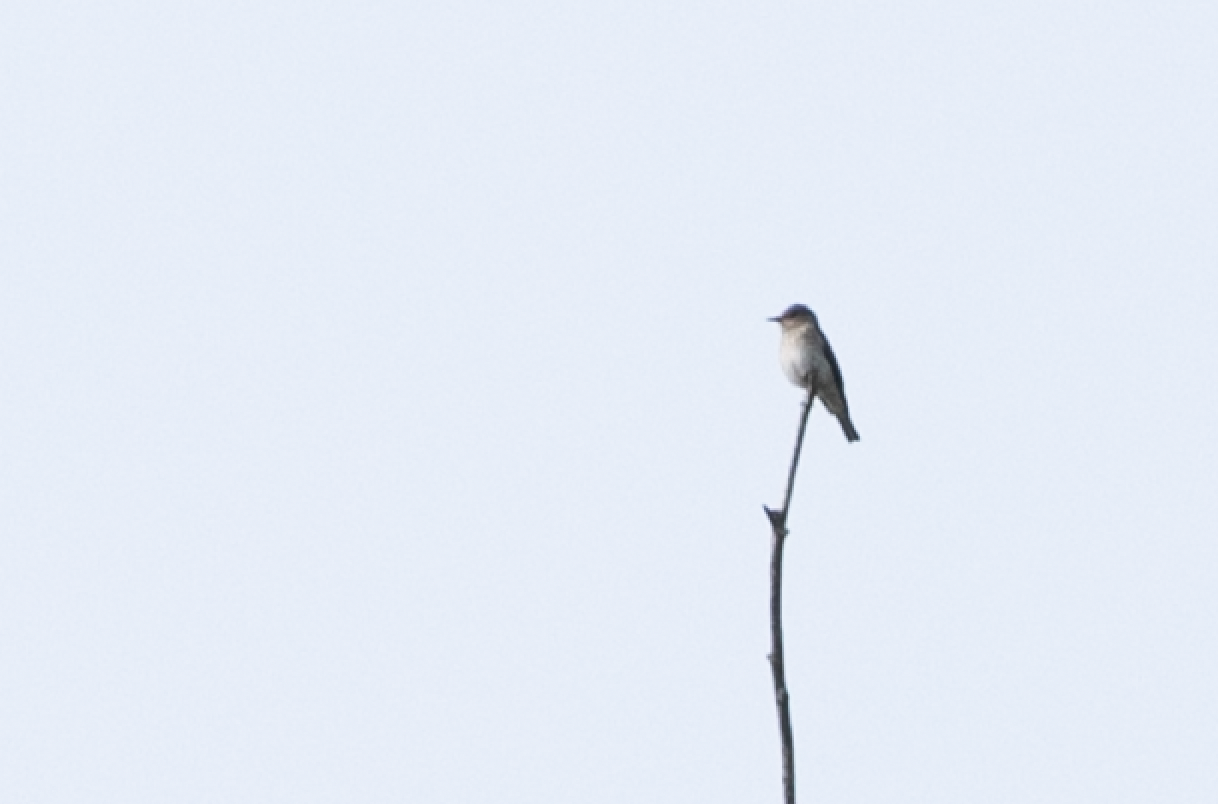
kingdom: Animalia
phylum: Chordata
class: Aves
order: Passeriformes
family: Muscicapidae
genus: Muscicapa
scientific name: Muscicapa striata
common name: Spotted flycatcher
